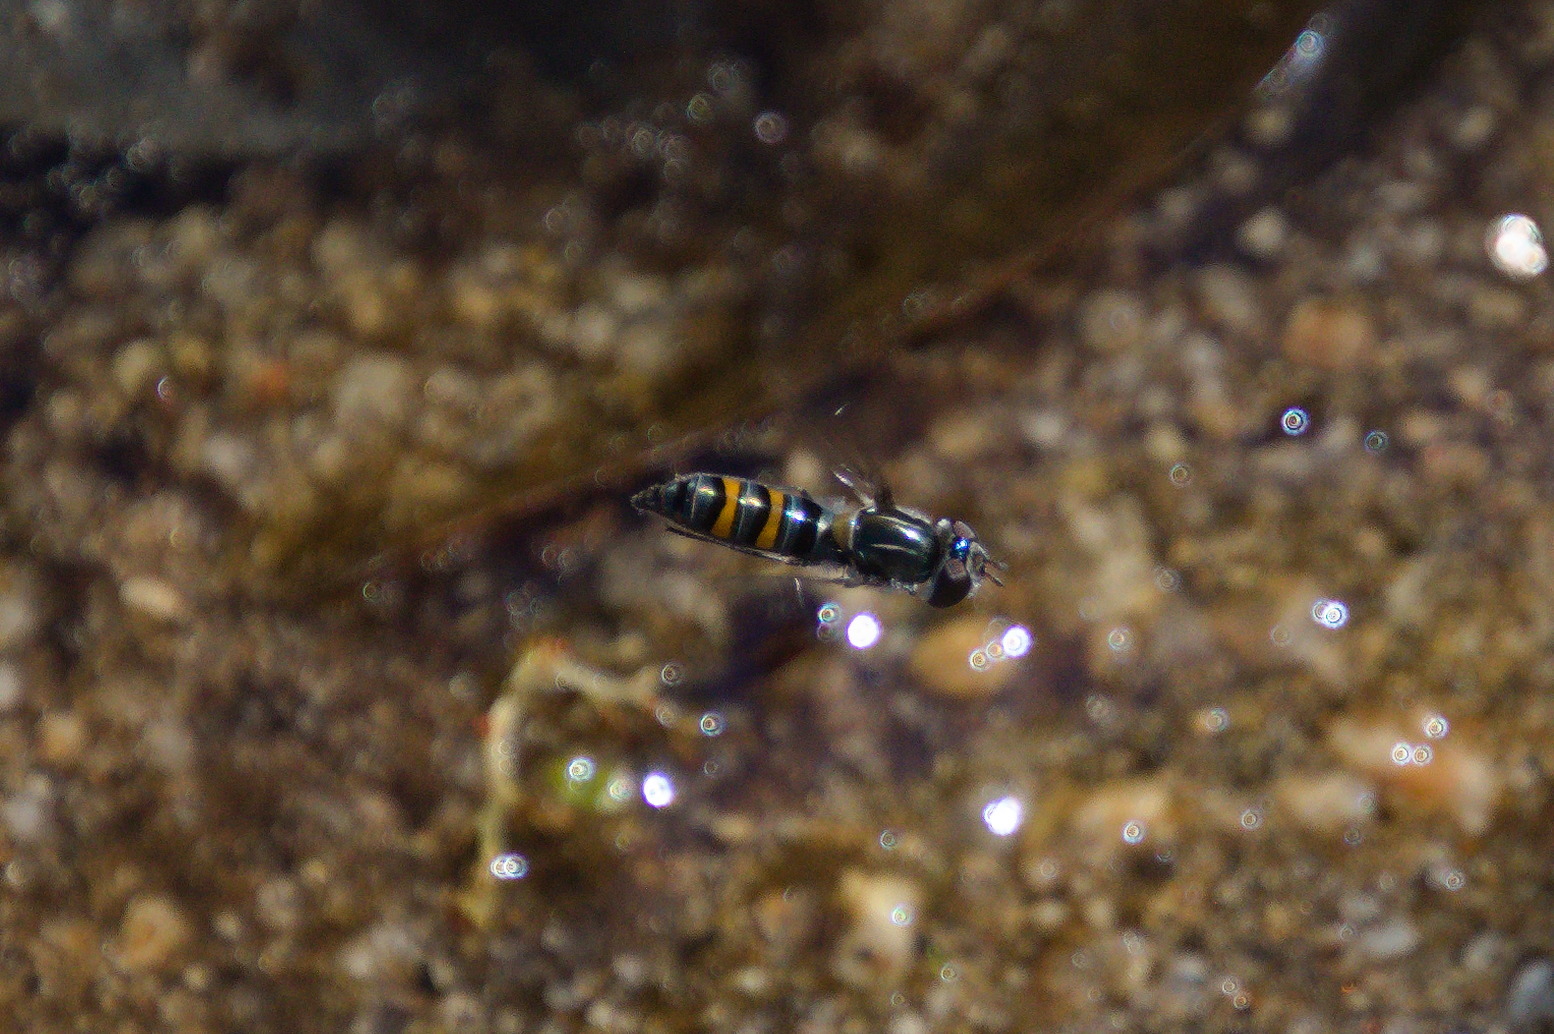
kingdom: Animalia
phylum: Arthropoda
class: Insecta
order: Diptera
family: Syrphidae
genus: Pseudoscaeva
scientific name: Pseudoscaeva diversifasciata
